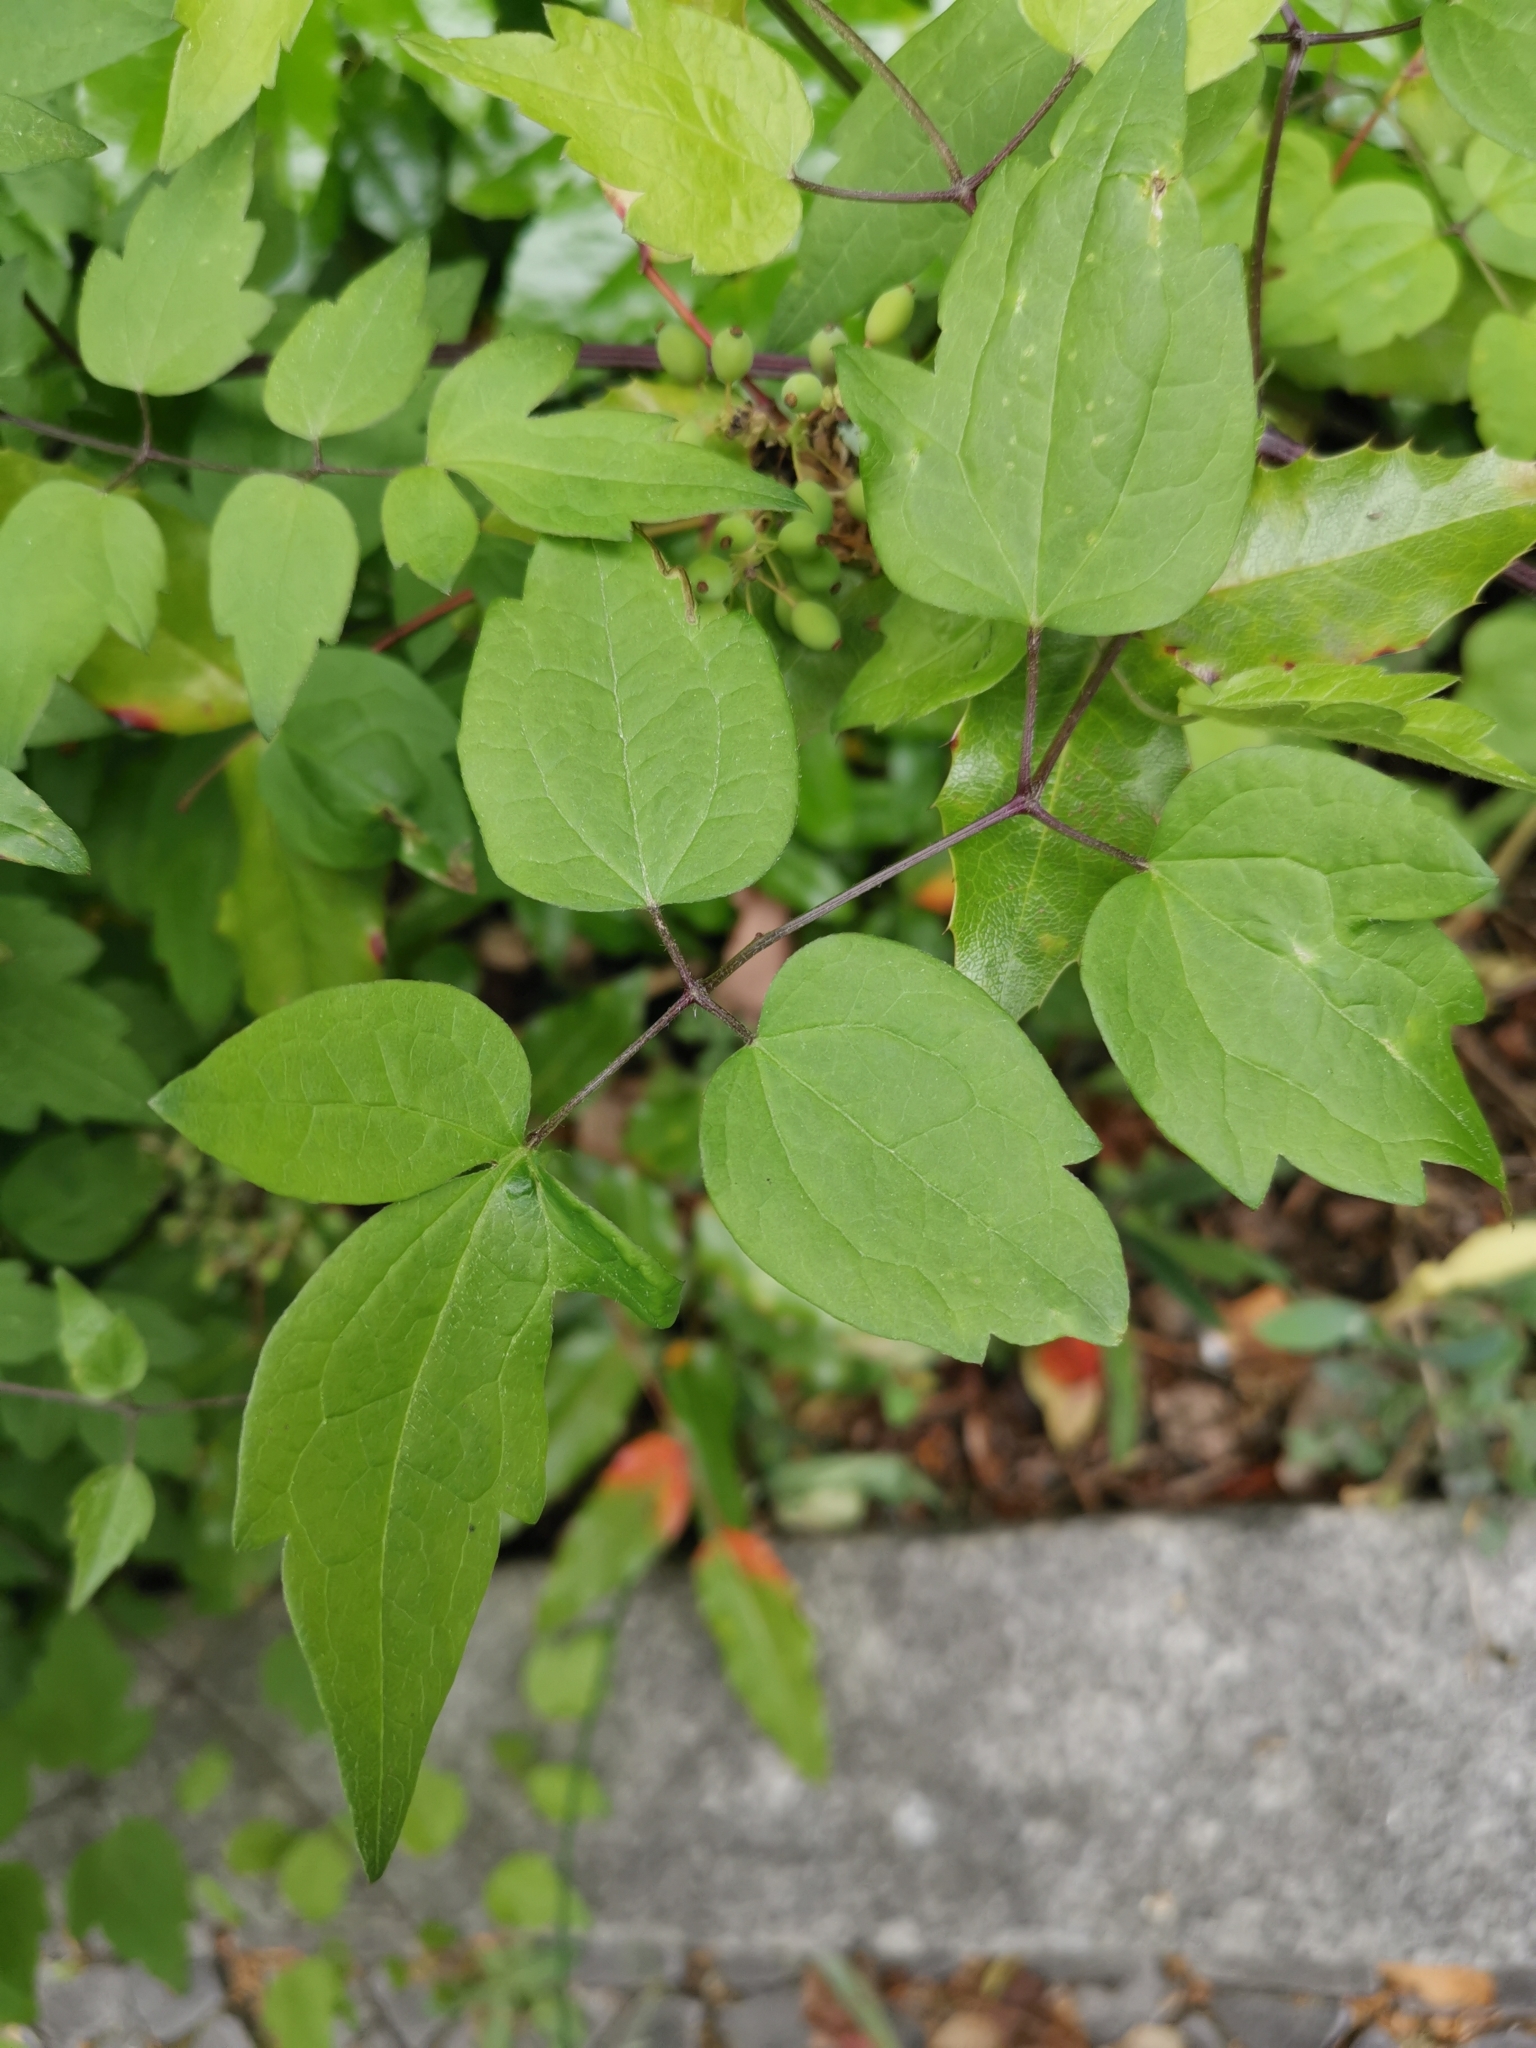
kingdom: Plantae
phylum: Tracheophyta
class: Magnoliopsida
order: Ranunculales
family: Ranunculaceae
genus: Clematis
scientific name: Clematis vitalba
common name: Evergreen clematis
